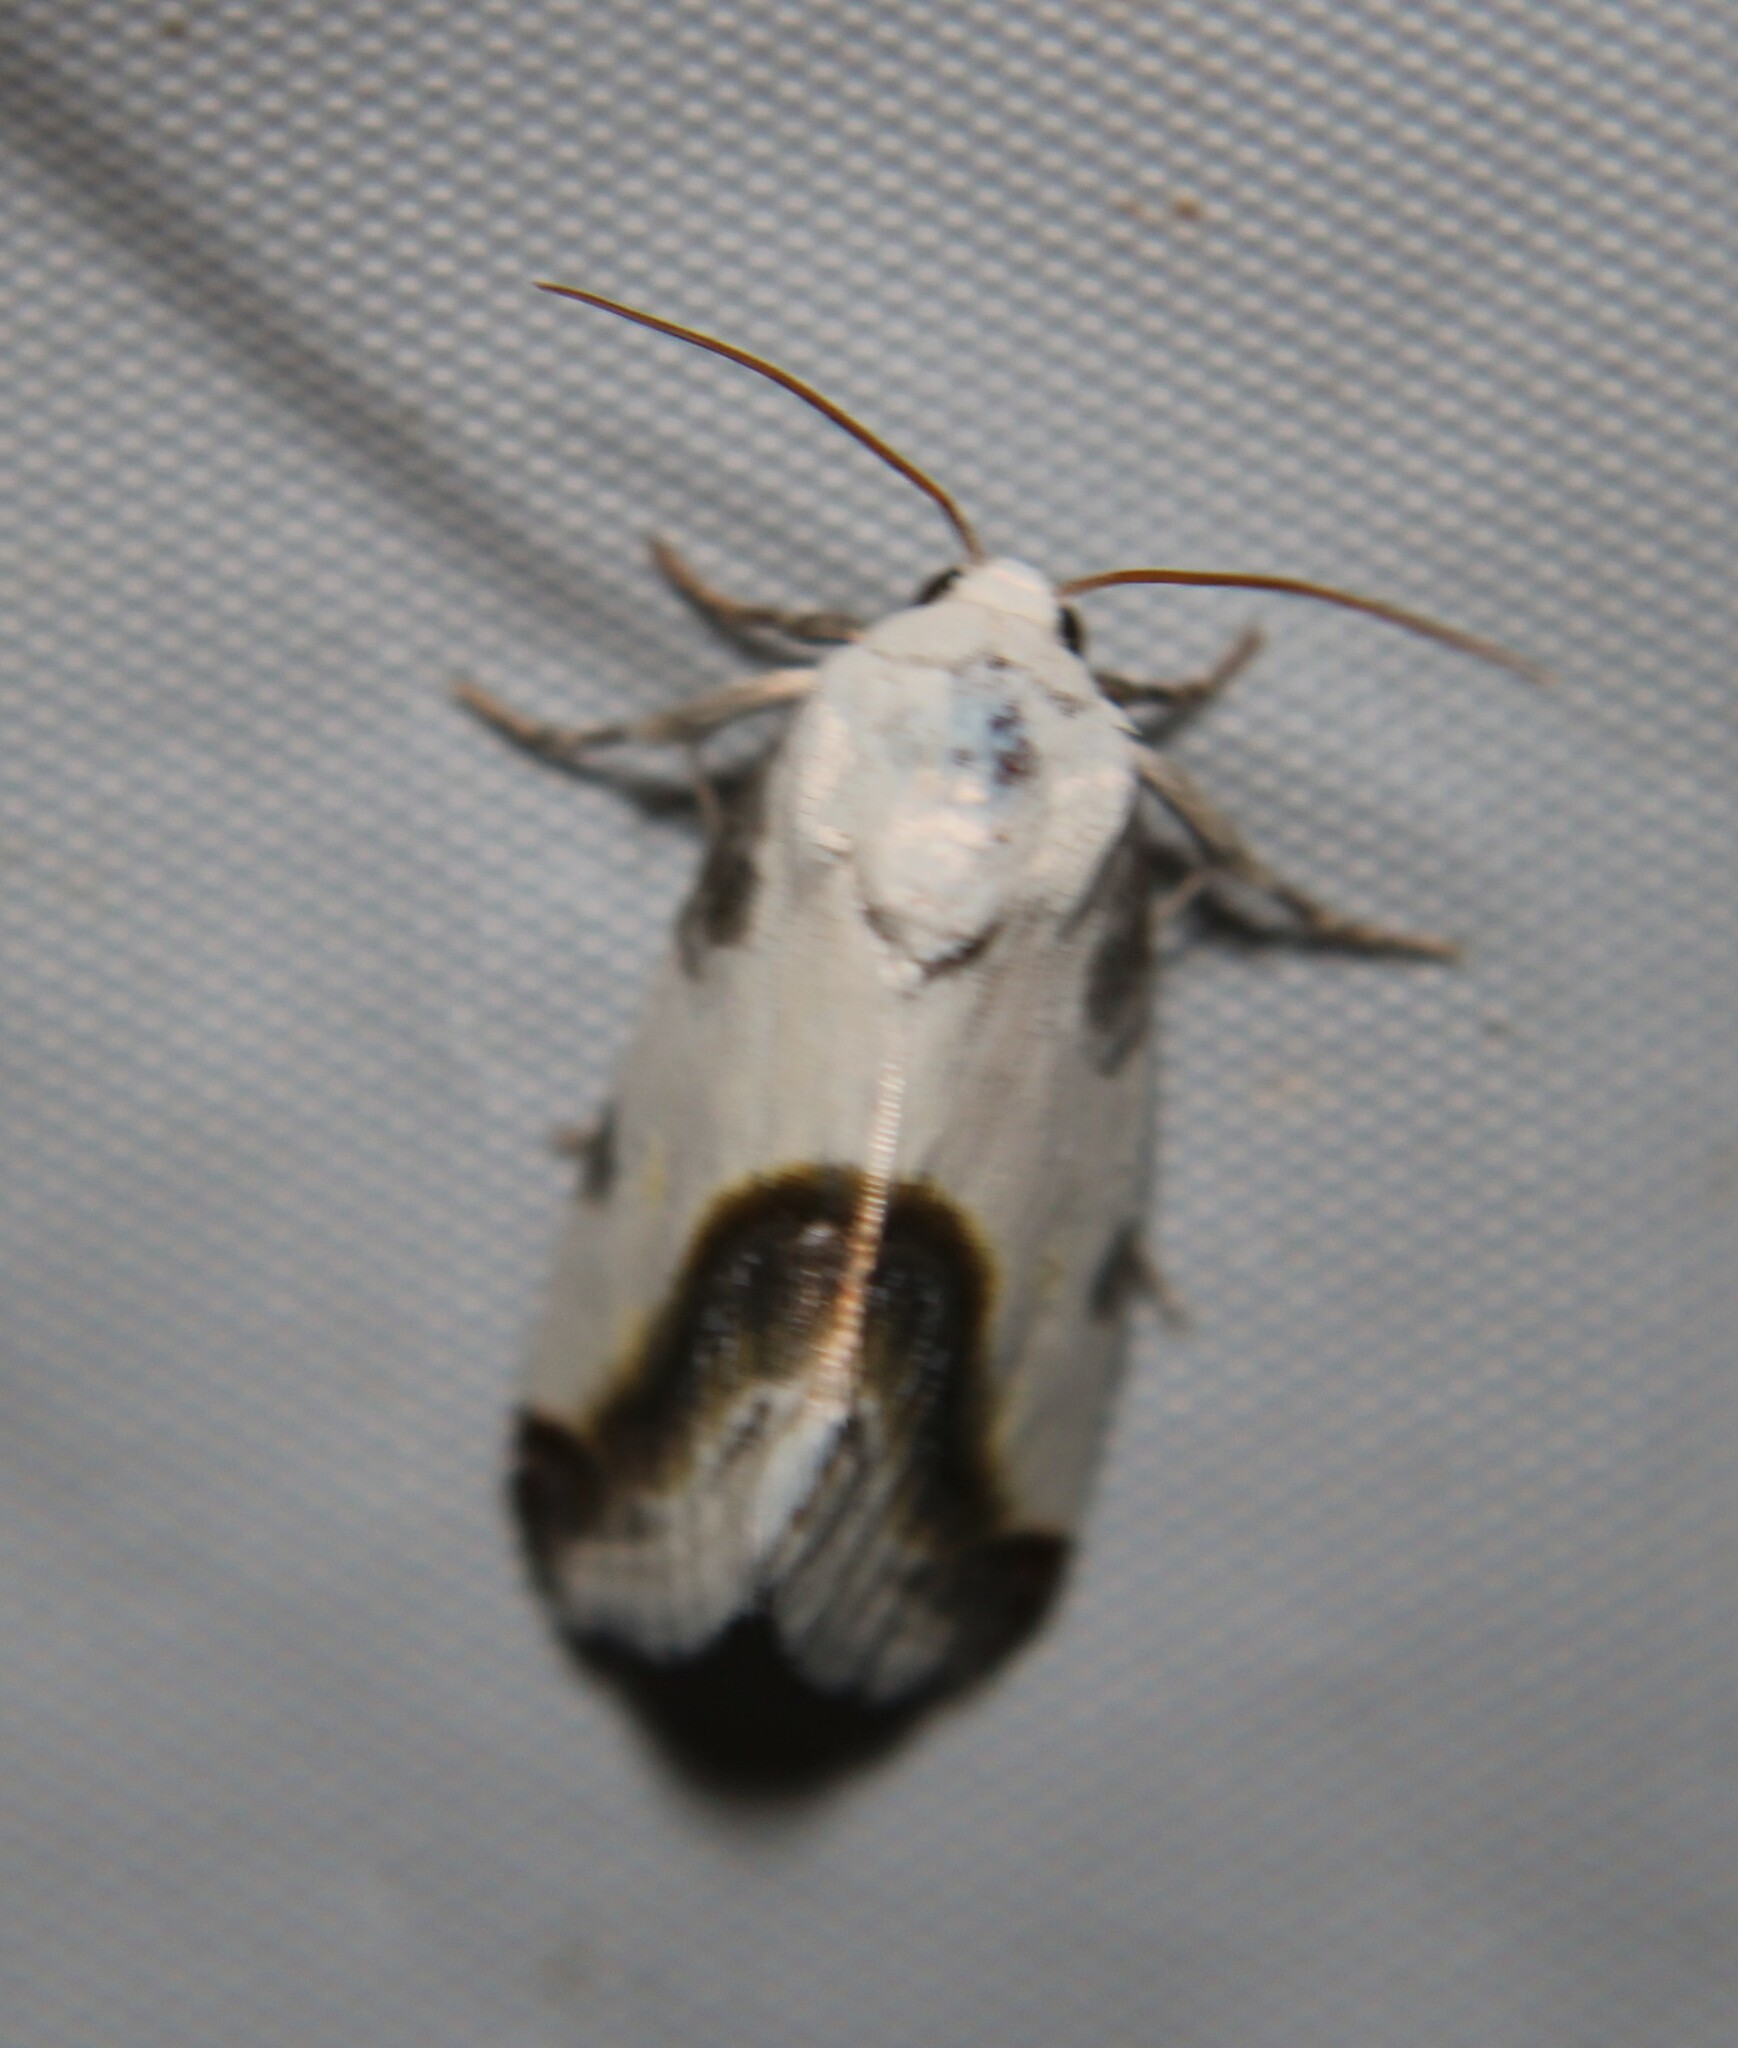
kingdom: Animalia
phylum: Arthropoda
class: Insecta
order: Lepidoptera
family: Noctuidae
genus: Acontia
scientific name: Acontia cretata
